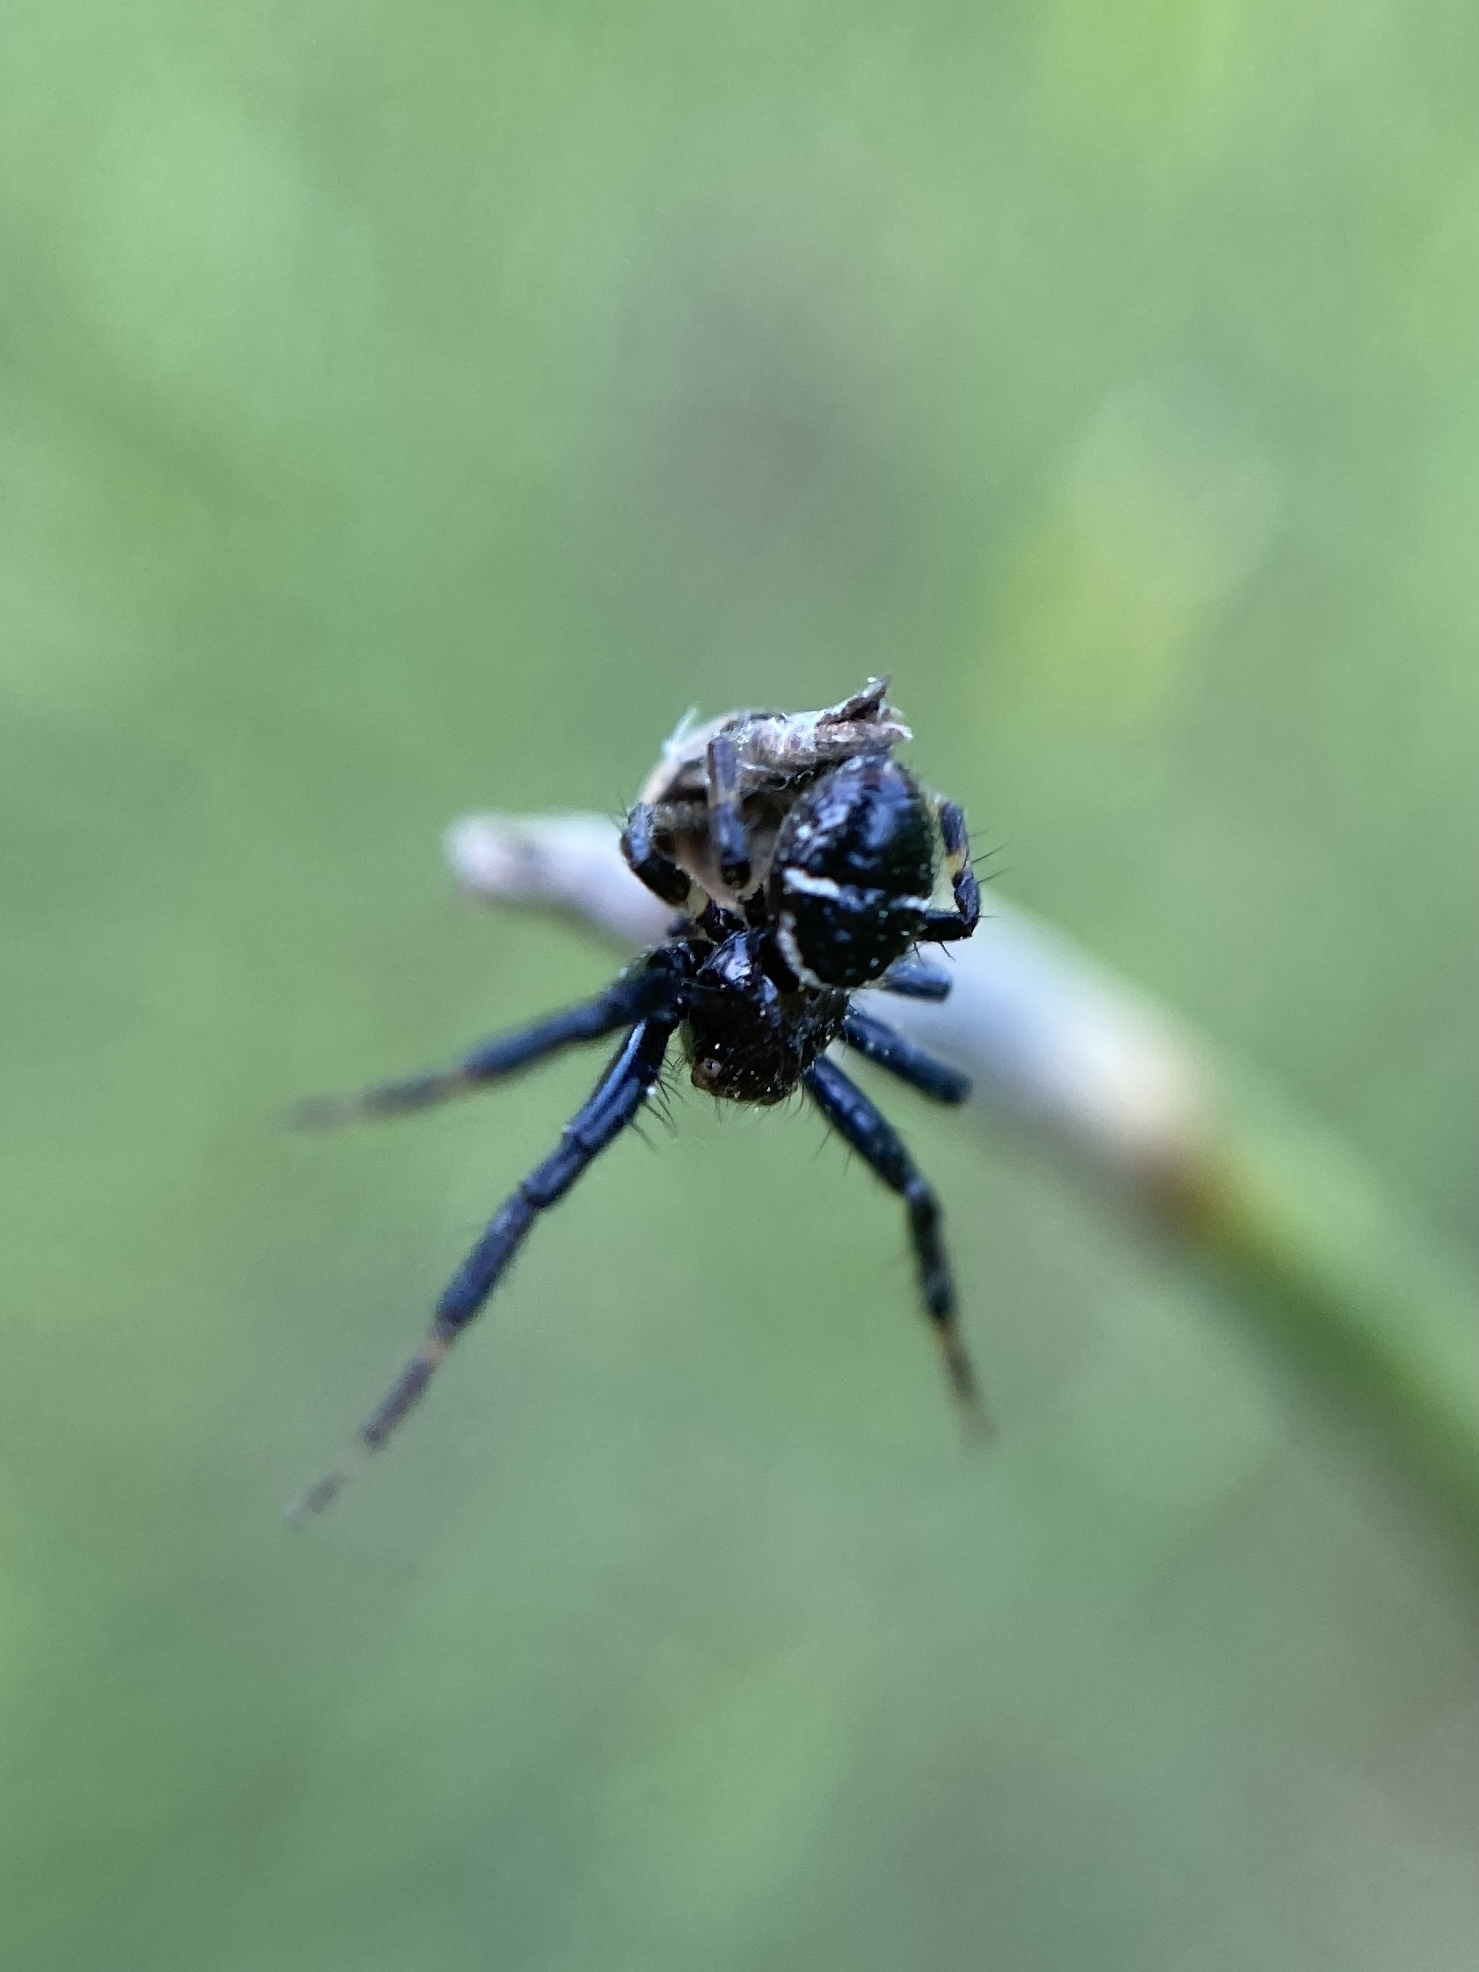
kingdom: Animalia
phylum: Arthropoda
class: Arachnida
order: Araneae
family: Thomisidae
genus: Synema
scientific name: Synema globosum
